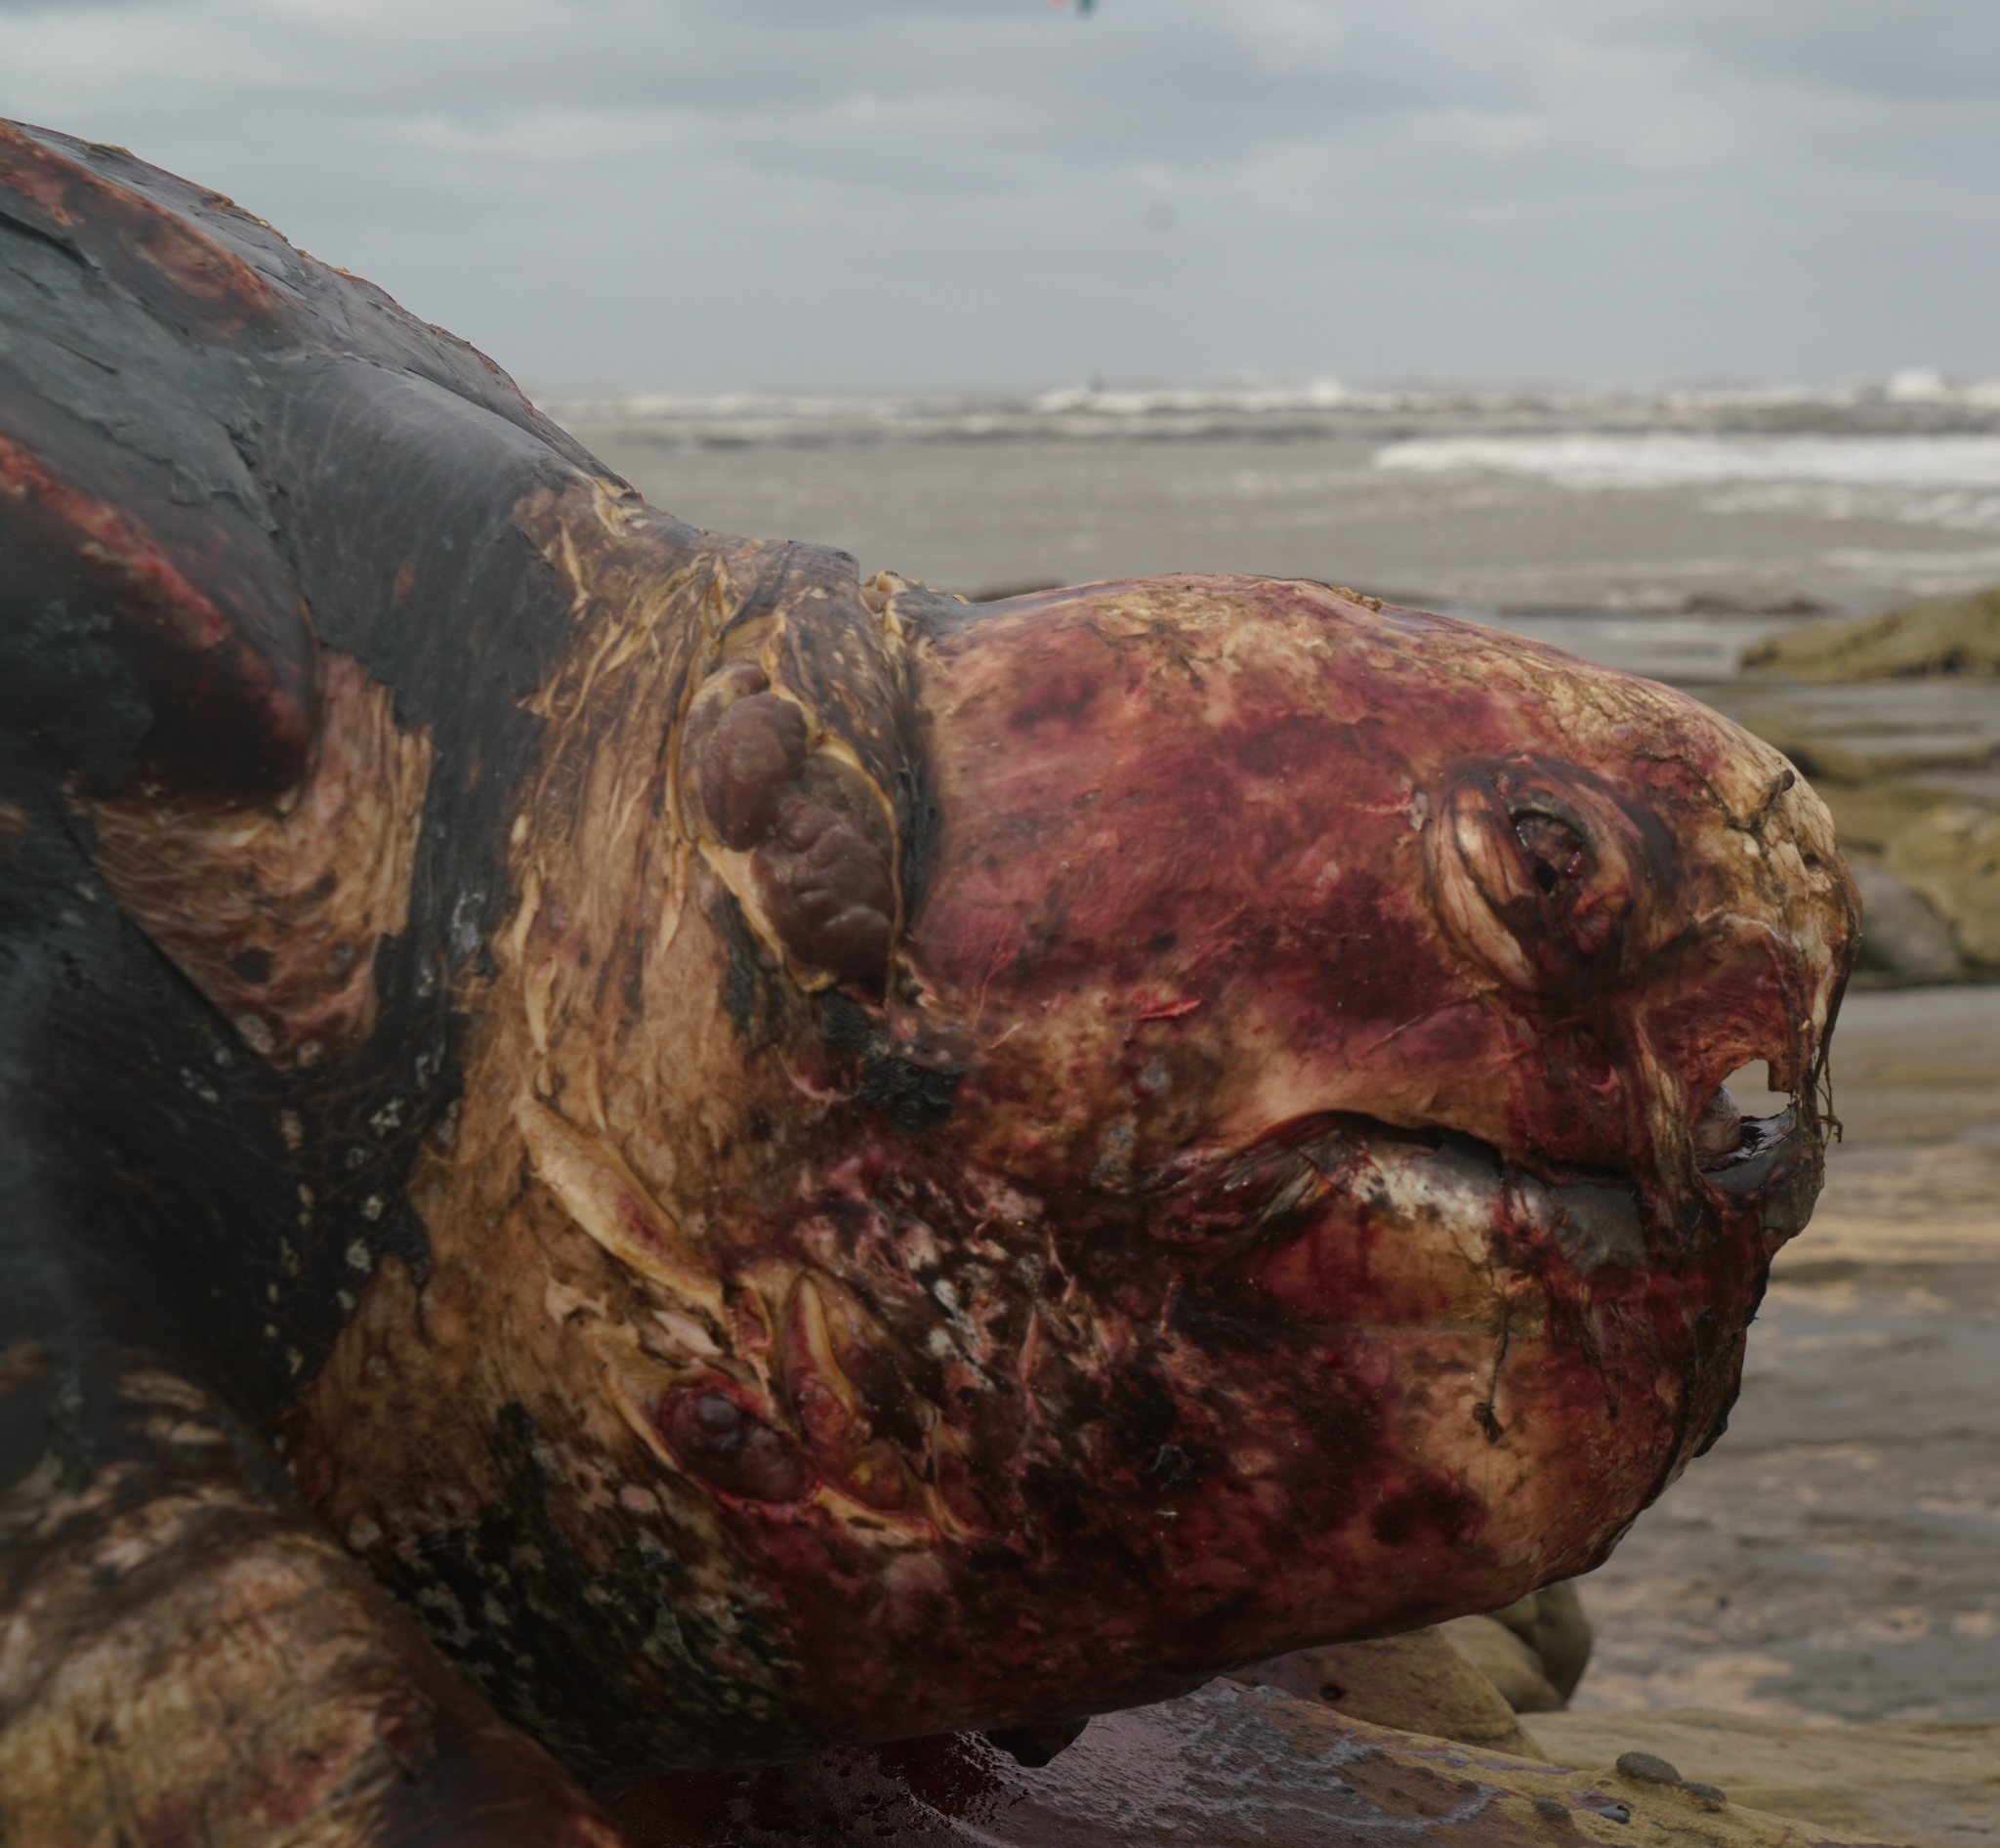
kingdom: Animalia
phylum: Chordata
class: Testudines
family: Dermochelyidae
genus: Dermochelys
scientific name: Dermochelys coriacea
